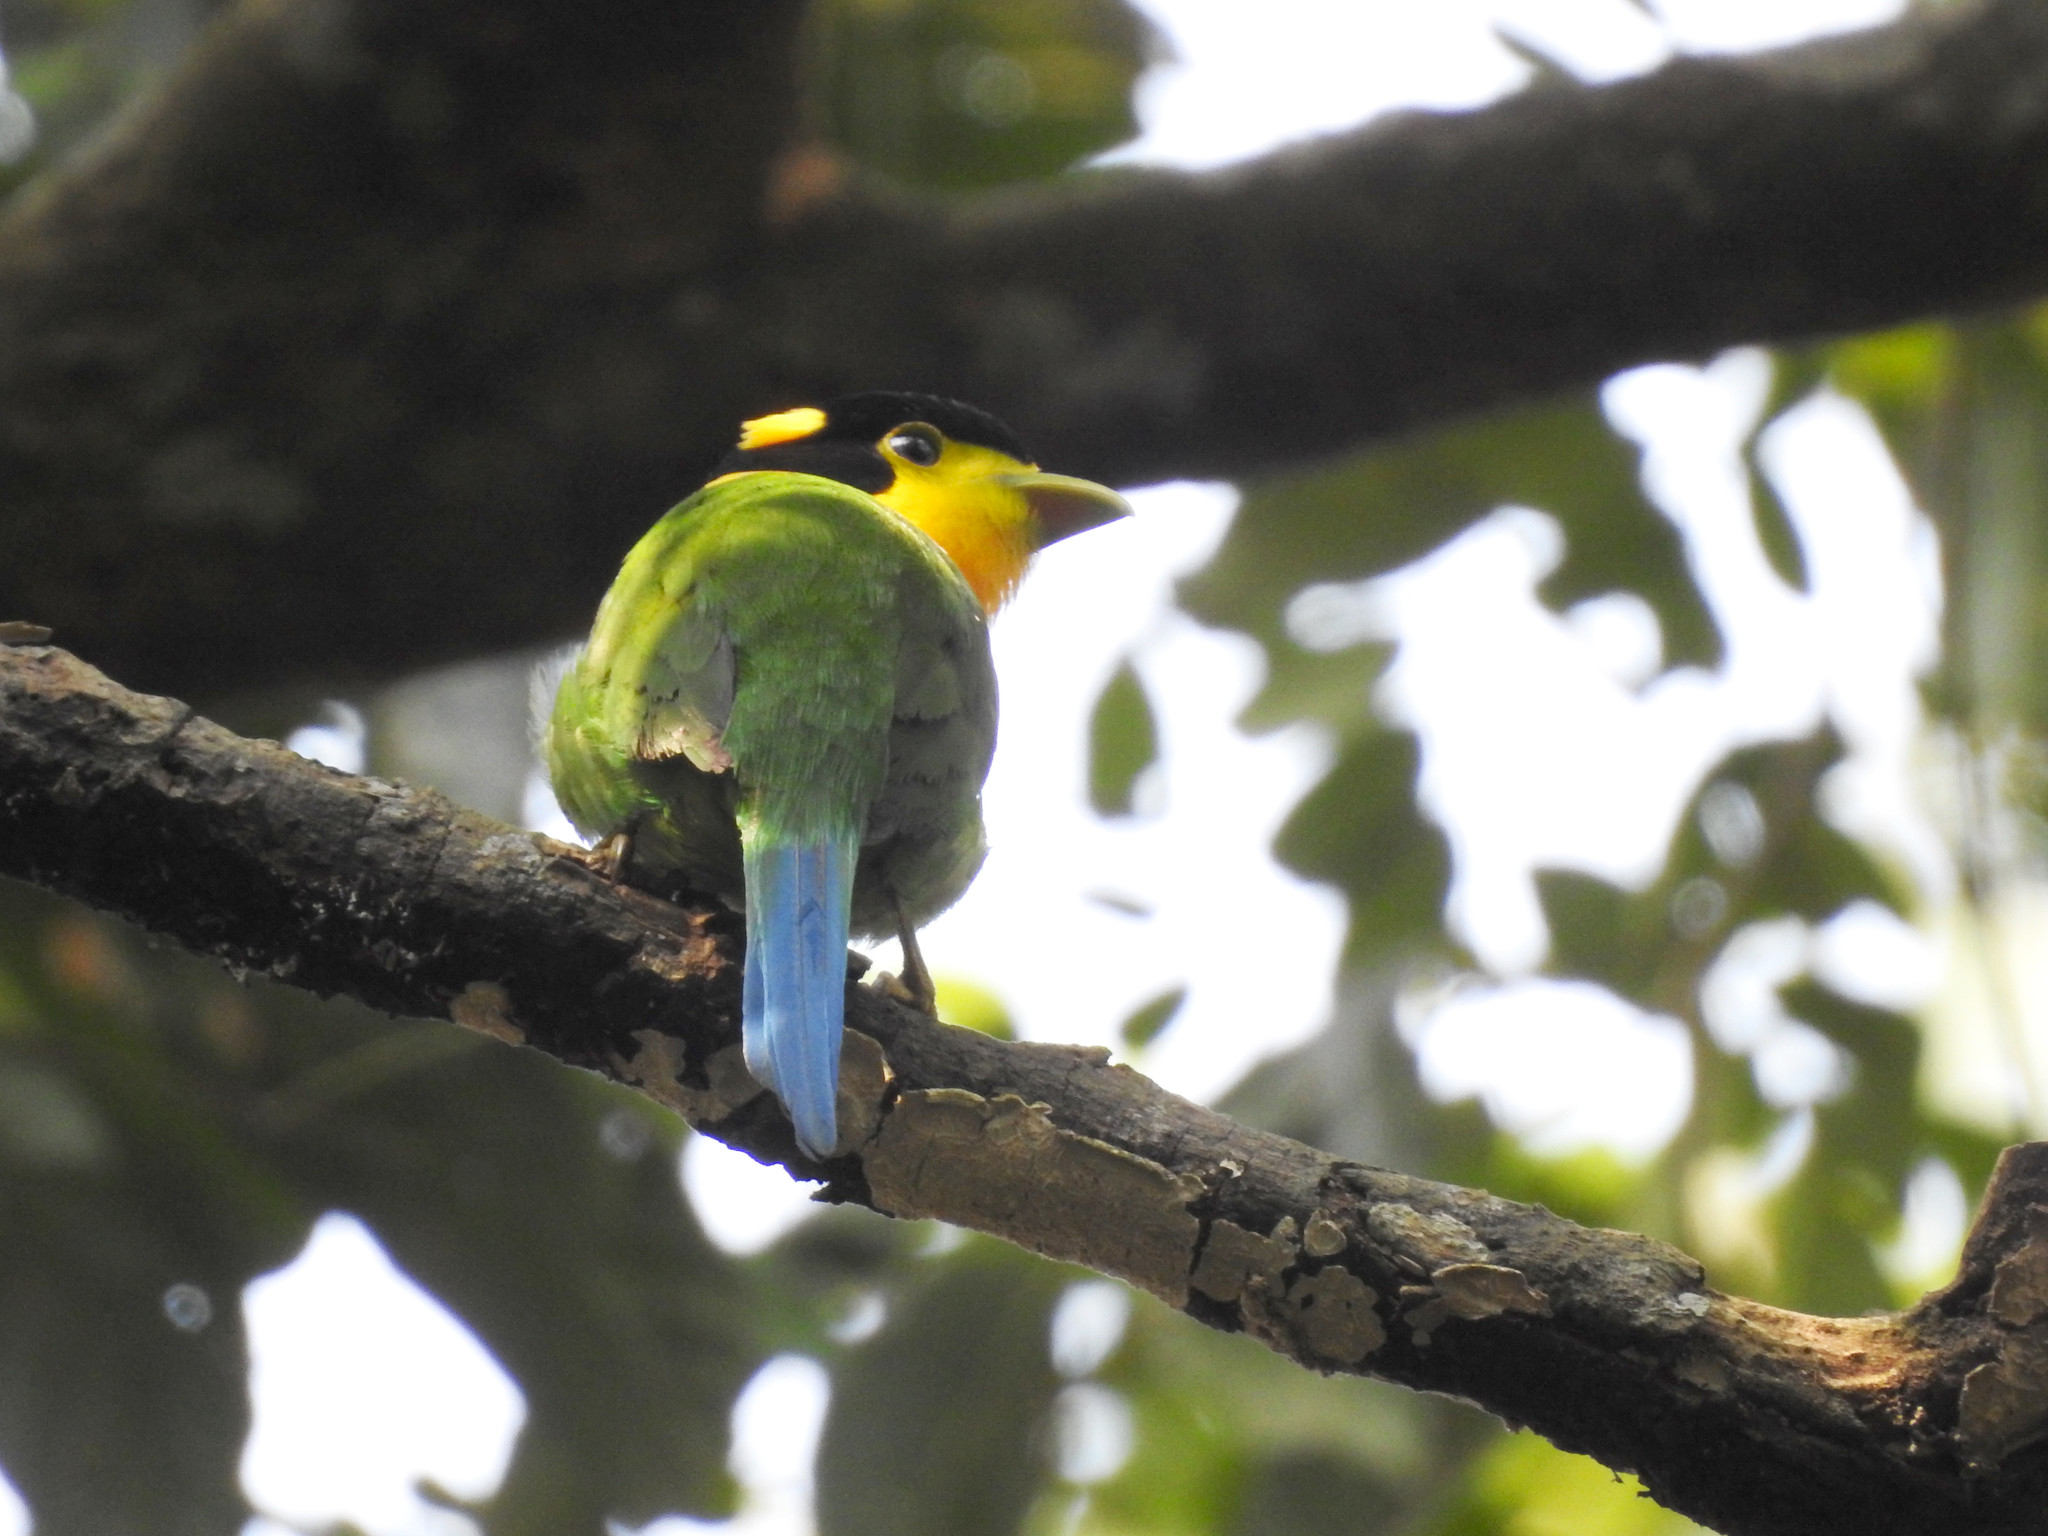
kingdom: Animalia
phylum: Chordata
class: Aves
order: Passeriformes
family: Eurylaimidae
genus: Psarisomus
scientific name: Psarisomus dalhousiae
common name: Long-tailed broadbill
